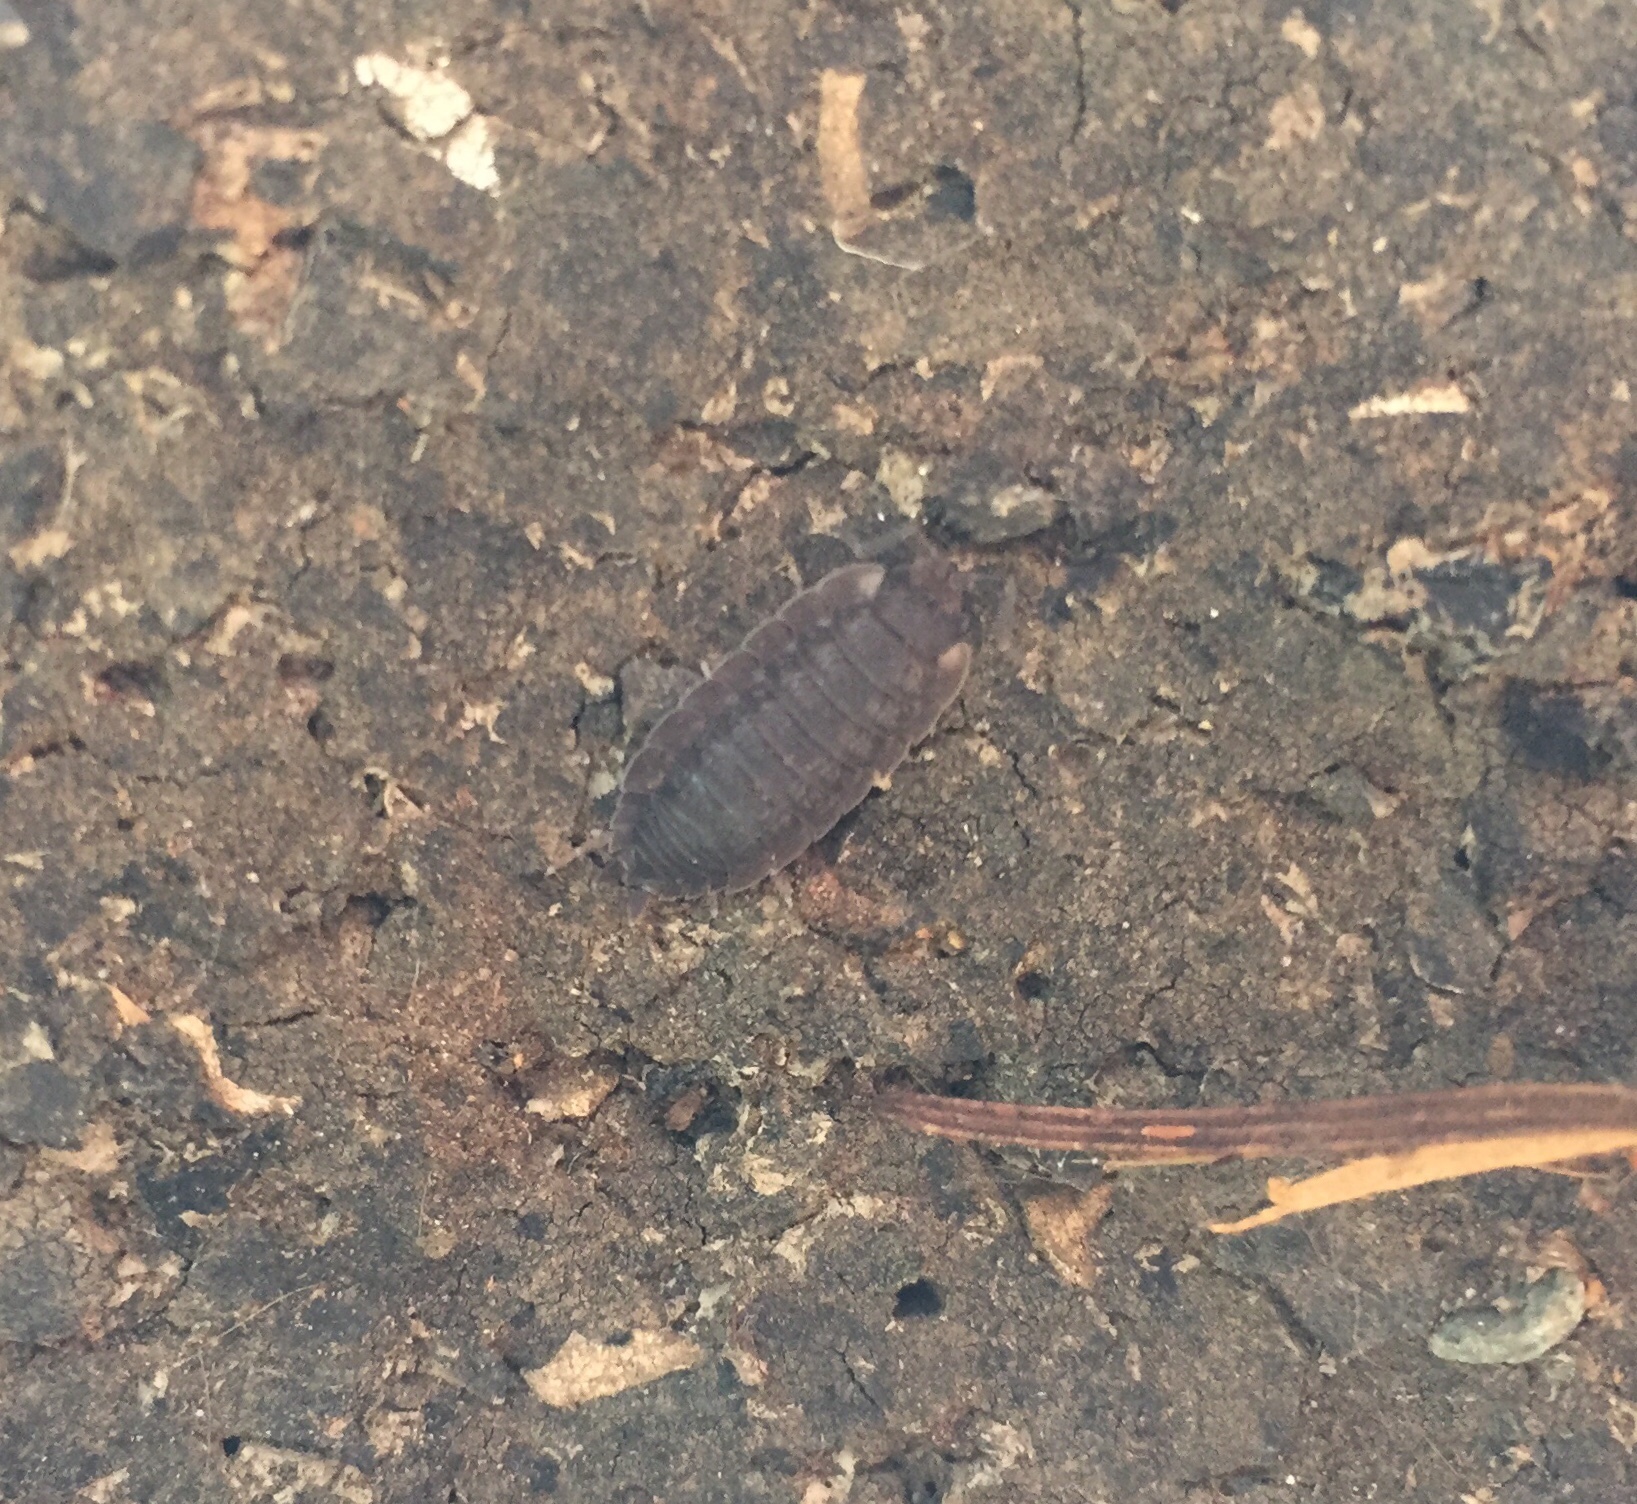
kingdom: Animalia
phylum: Arthropoda
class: Malacostraca
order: Isopoda
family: Porcellionidae
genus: Porcellio
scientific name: Porcellio scaber
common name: Common rough woodlouse
